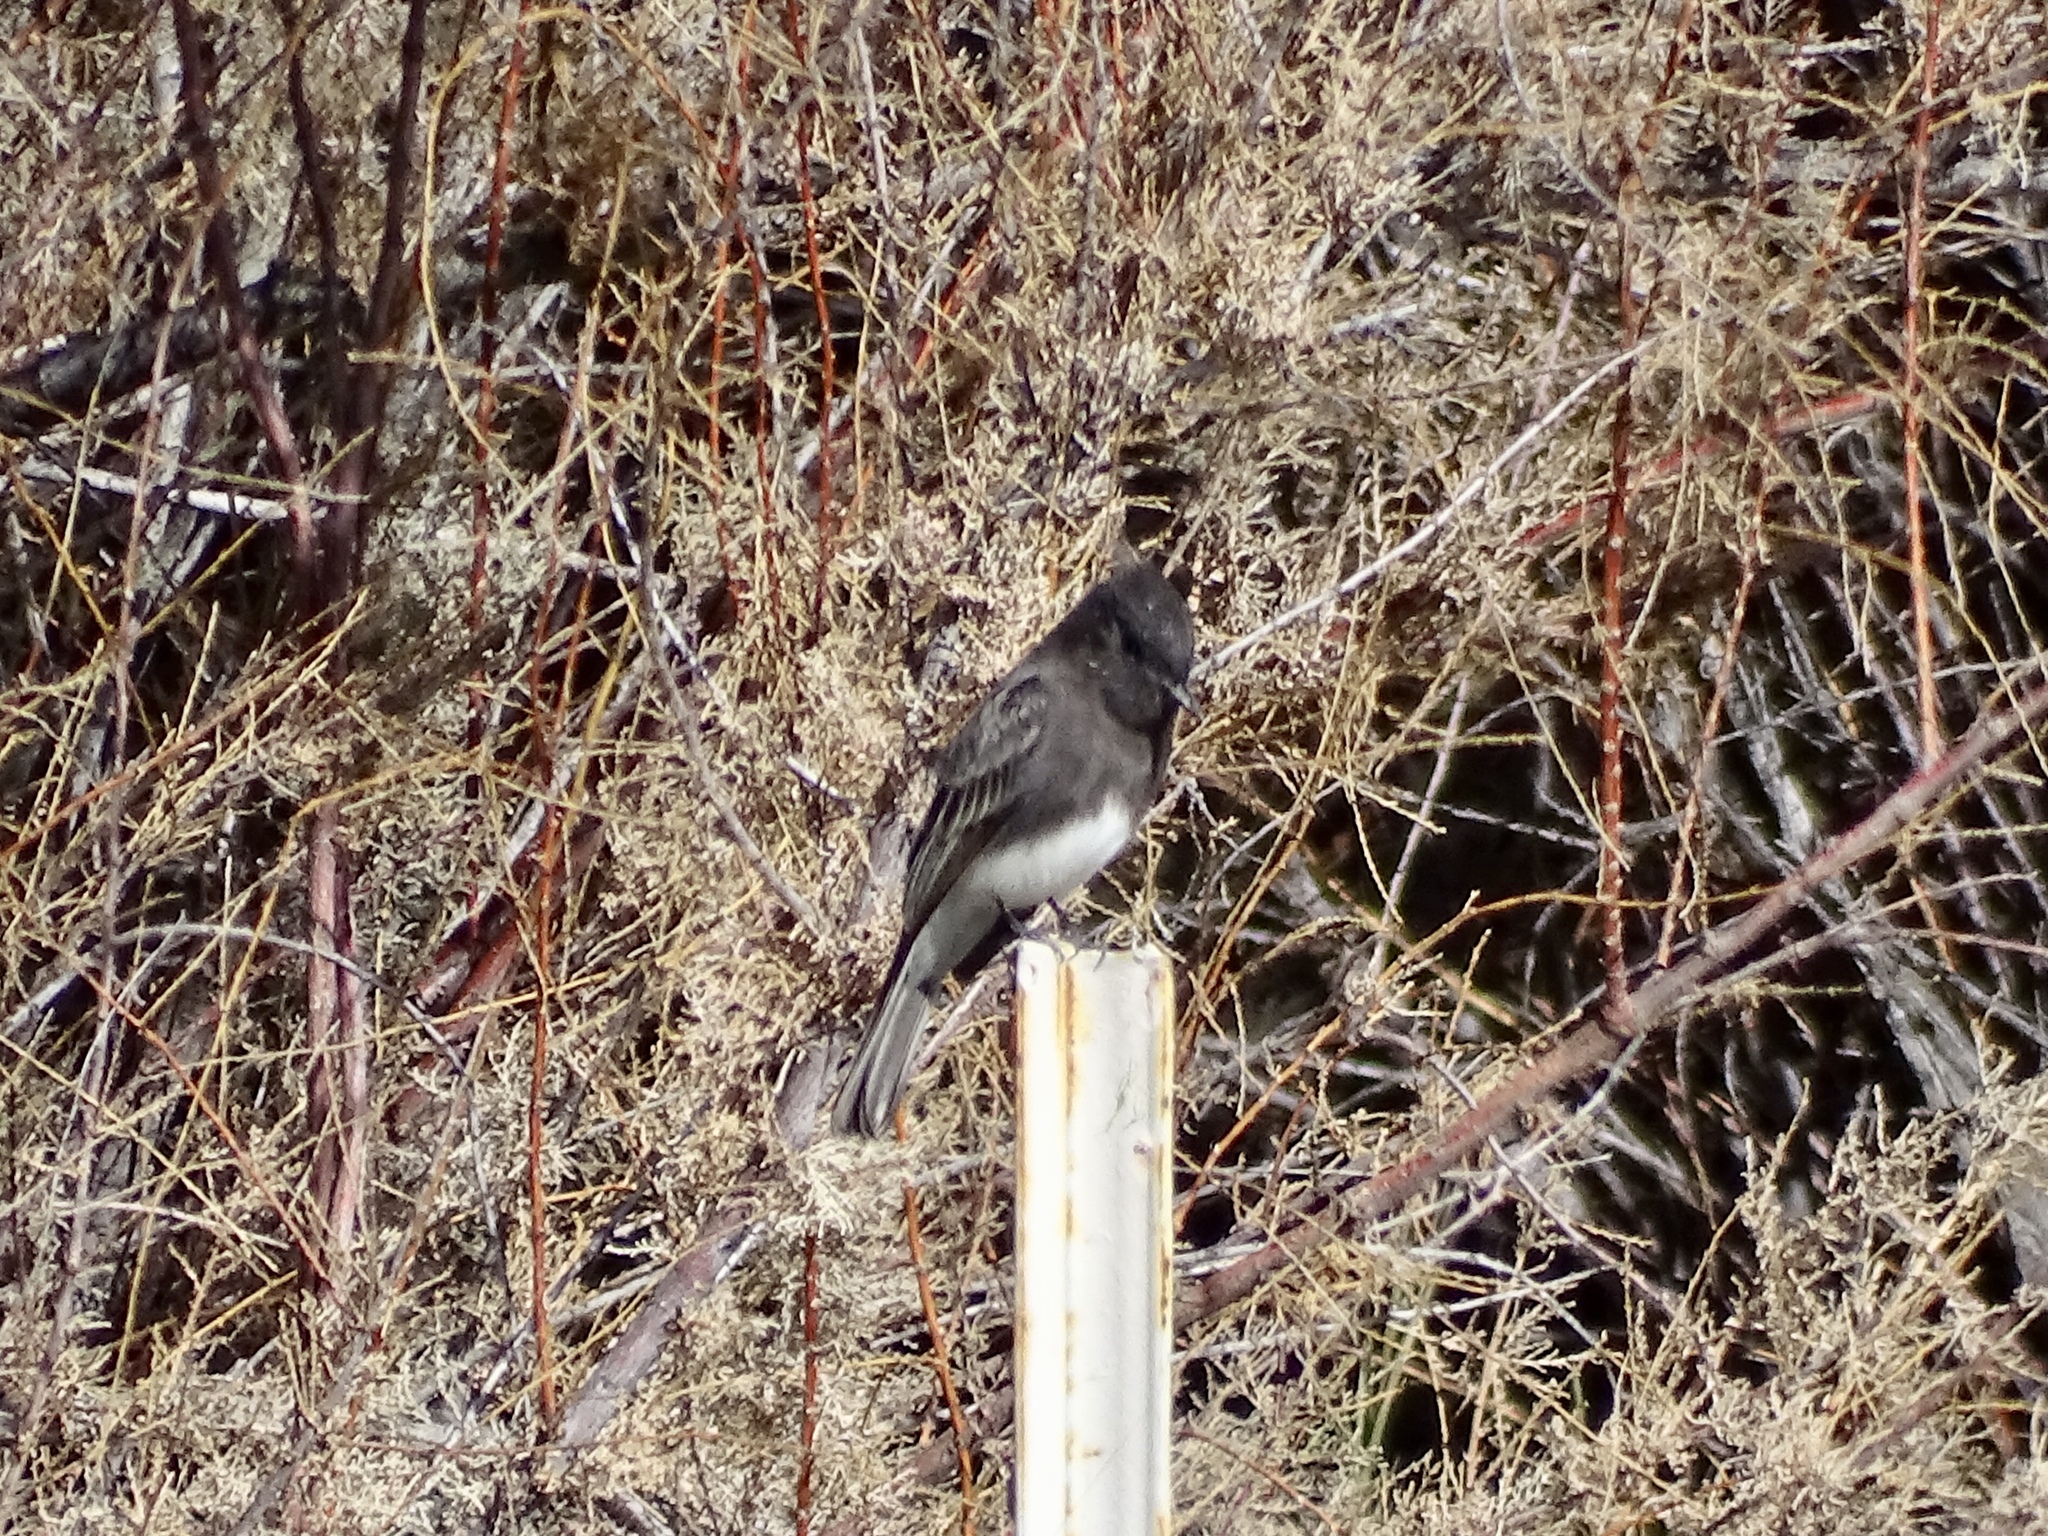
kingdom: Animalia
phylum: Chordata
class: Aves
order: Passeriformes
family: Tyrannidae
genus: Sayornis
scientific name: Sayornis nigricans
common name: Black phoebe
